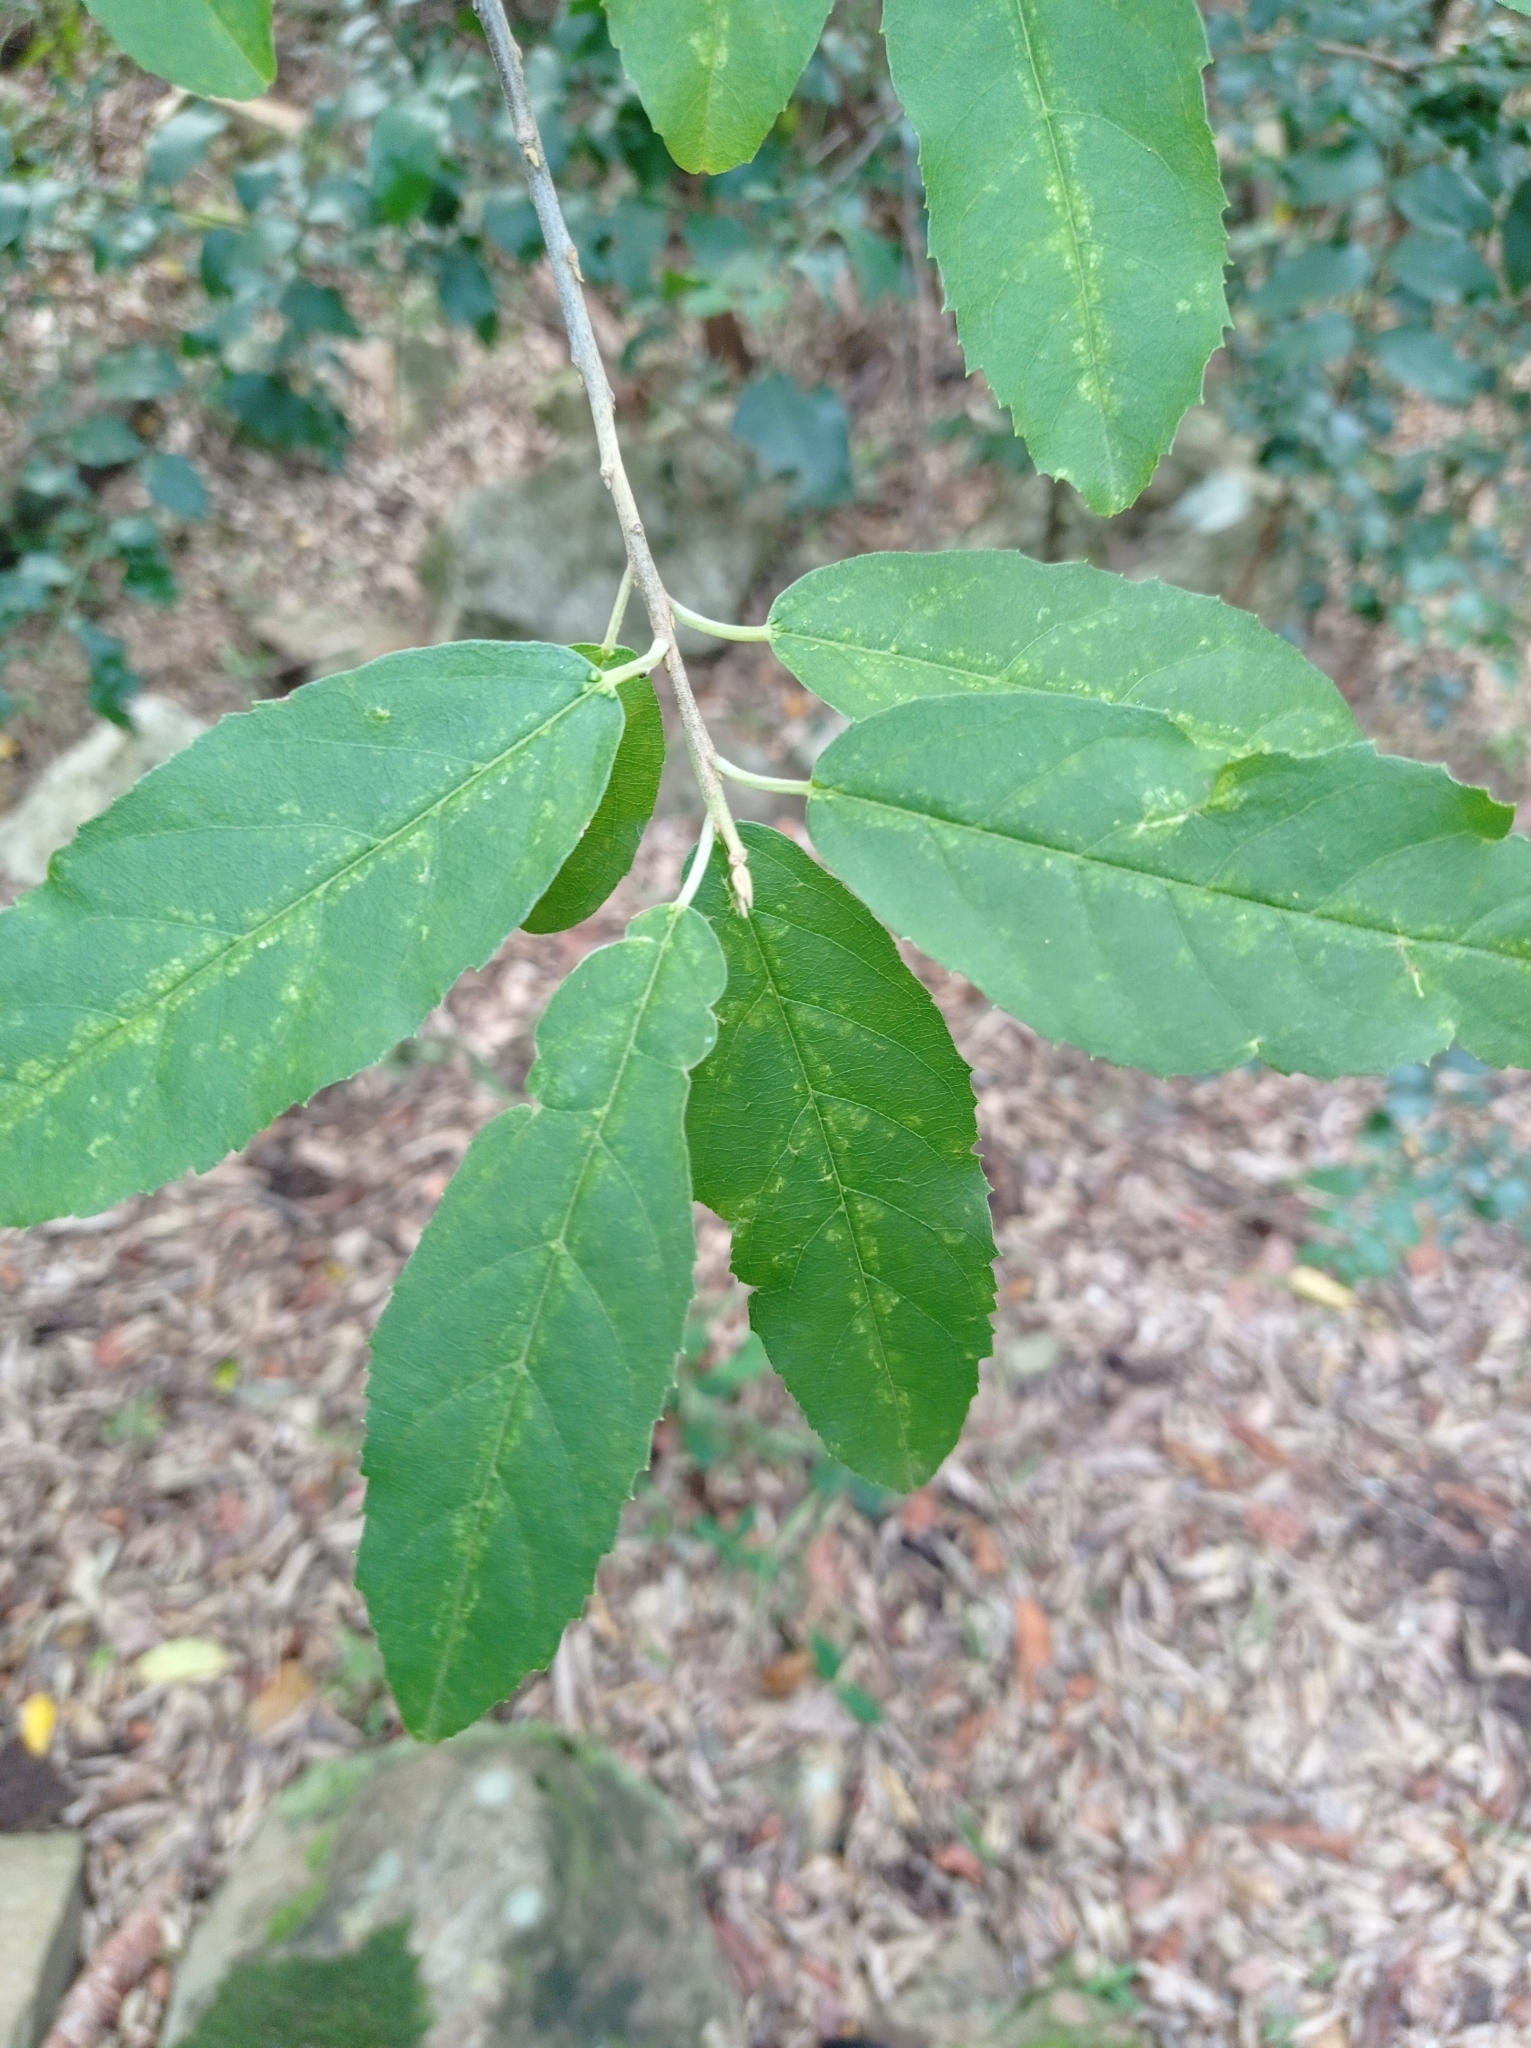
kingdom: Plantae
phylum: Tracheophyta
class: Magnoliopsida
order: Malpighiales
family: Achariaceae
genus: Kiggelaria
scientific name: Kiggelaria africana
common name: Wild peach
